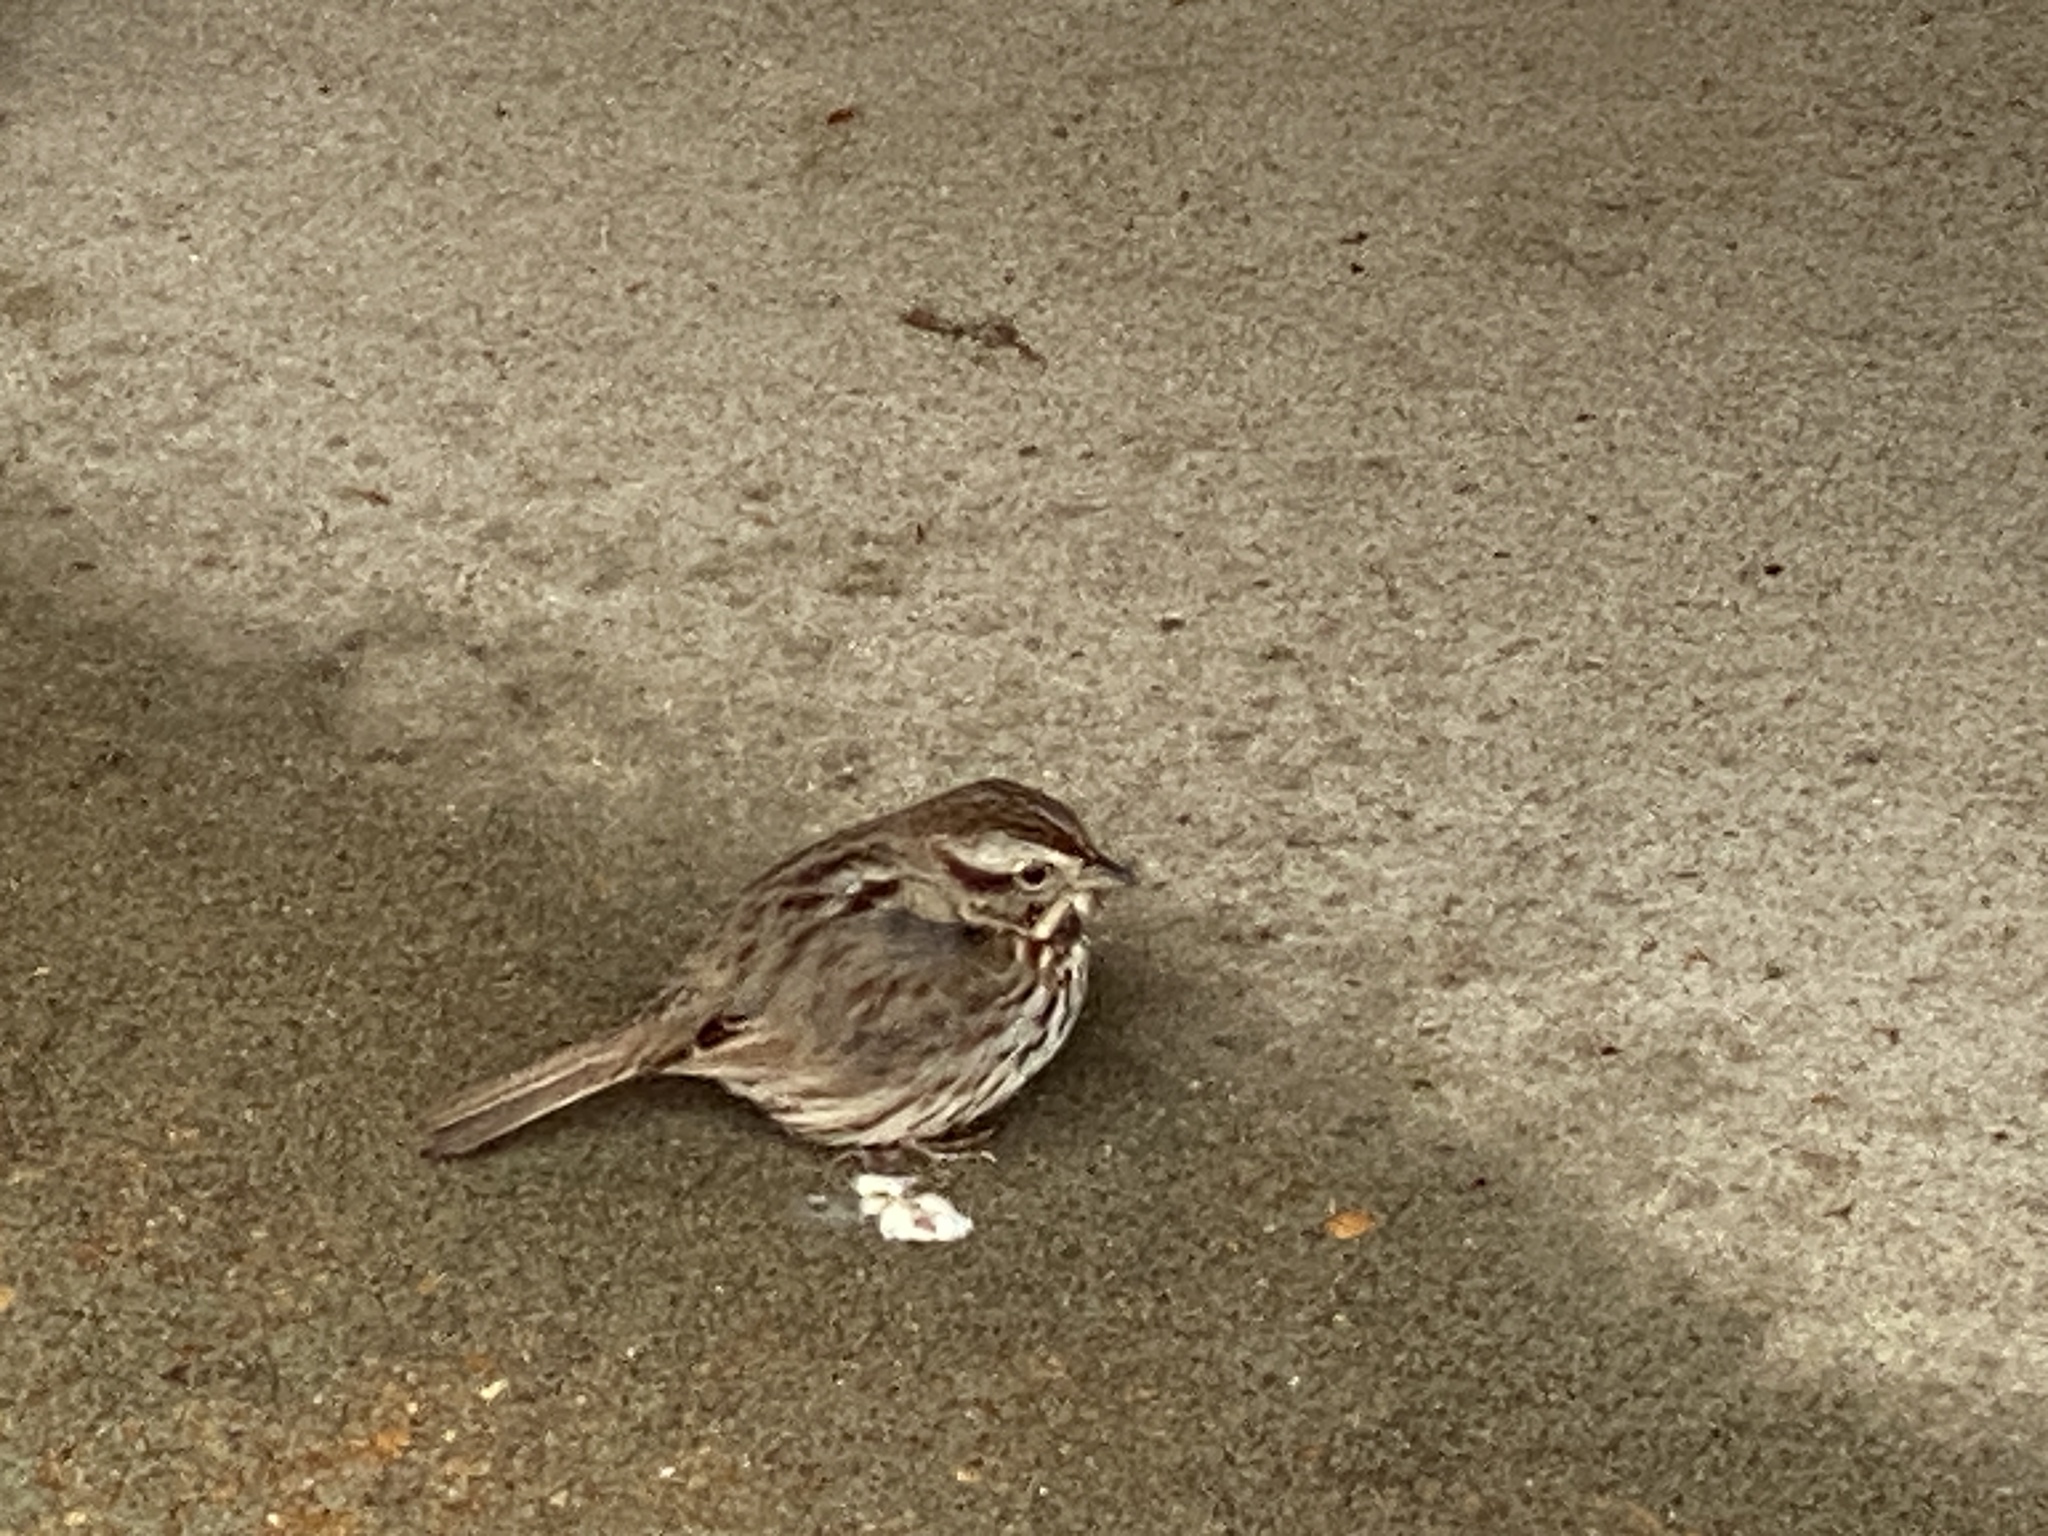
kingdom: Animalia
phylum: Chordata
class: Aves
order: Passeriformes
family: Passerellidae
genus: Melospiza
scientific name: Melospiza melodia
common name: Song sparrow
